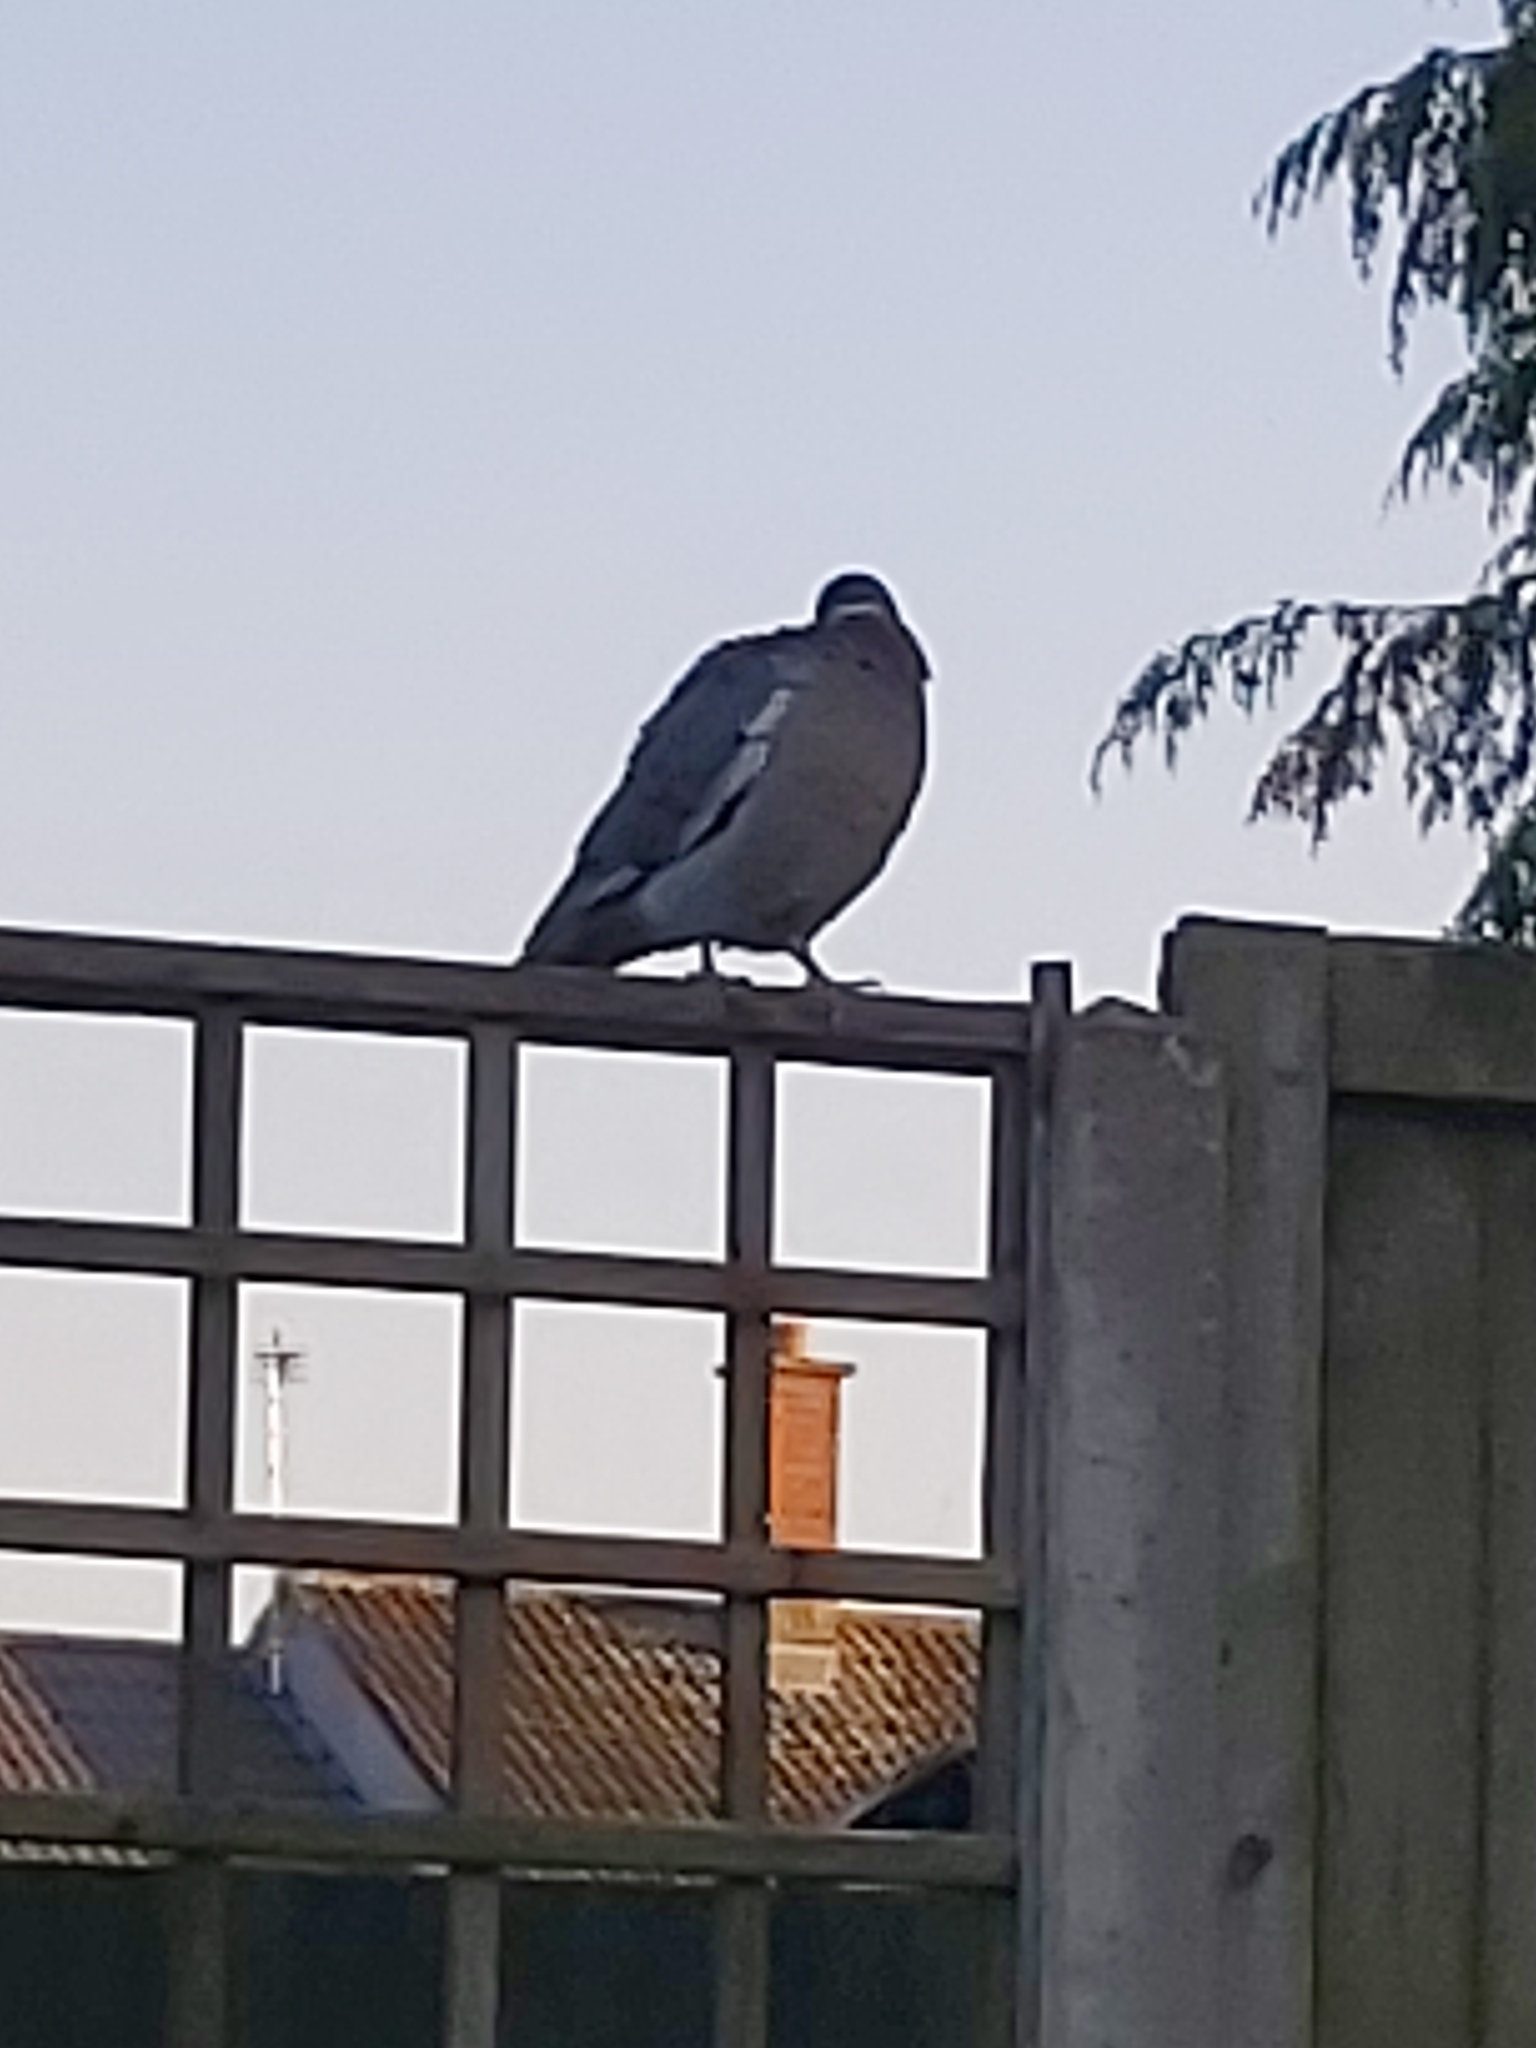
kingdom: Animalia
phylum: Chordata
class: Aves
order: Columbiformes
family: Columbidae
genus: Columba
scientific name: Columba palumbus
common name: Common wood pigeon
